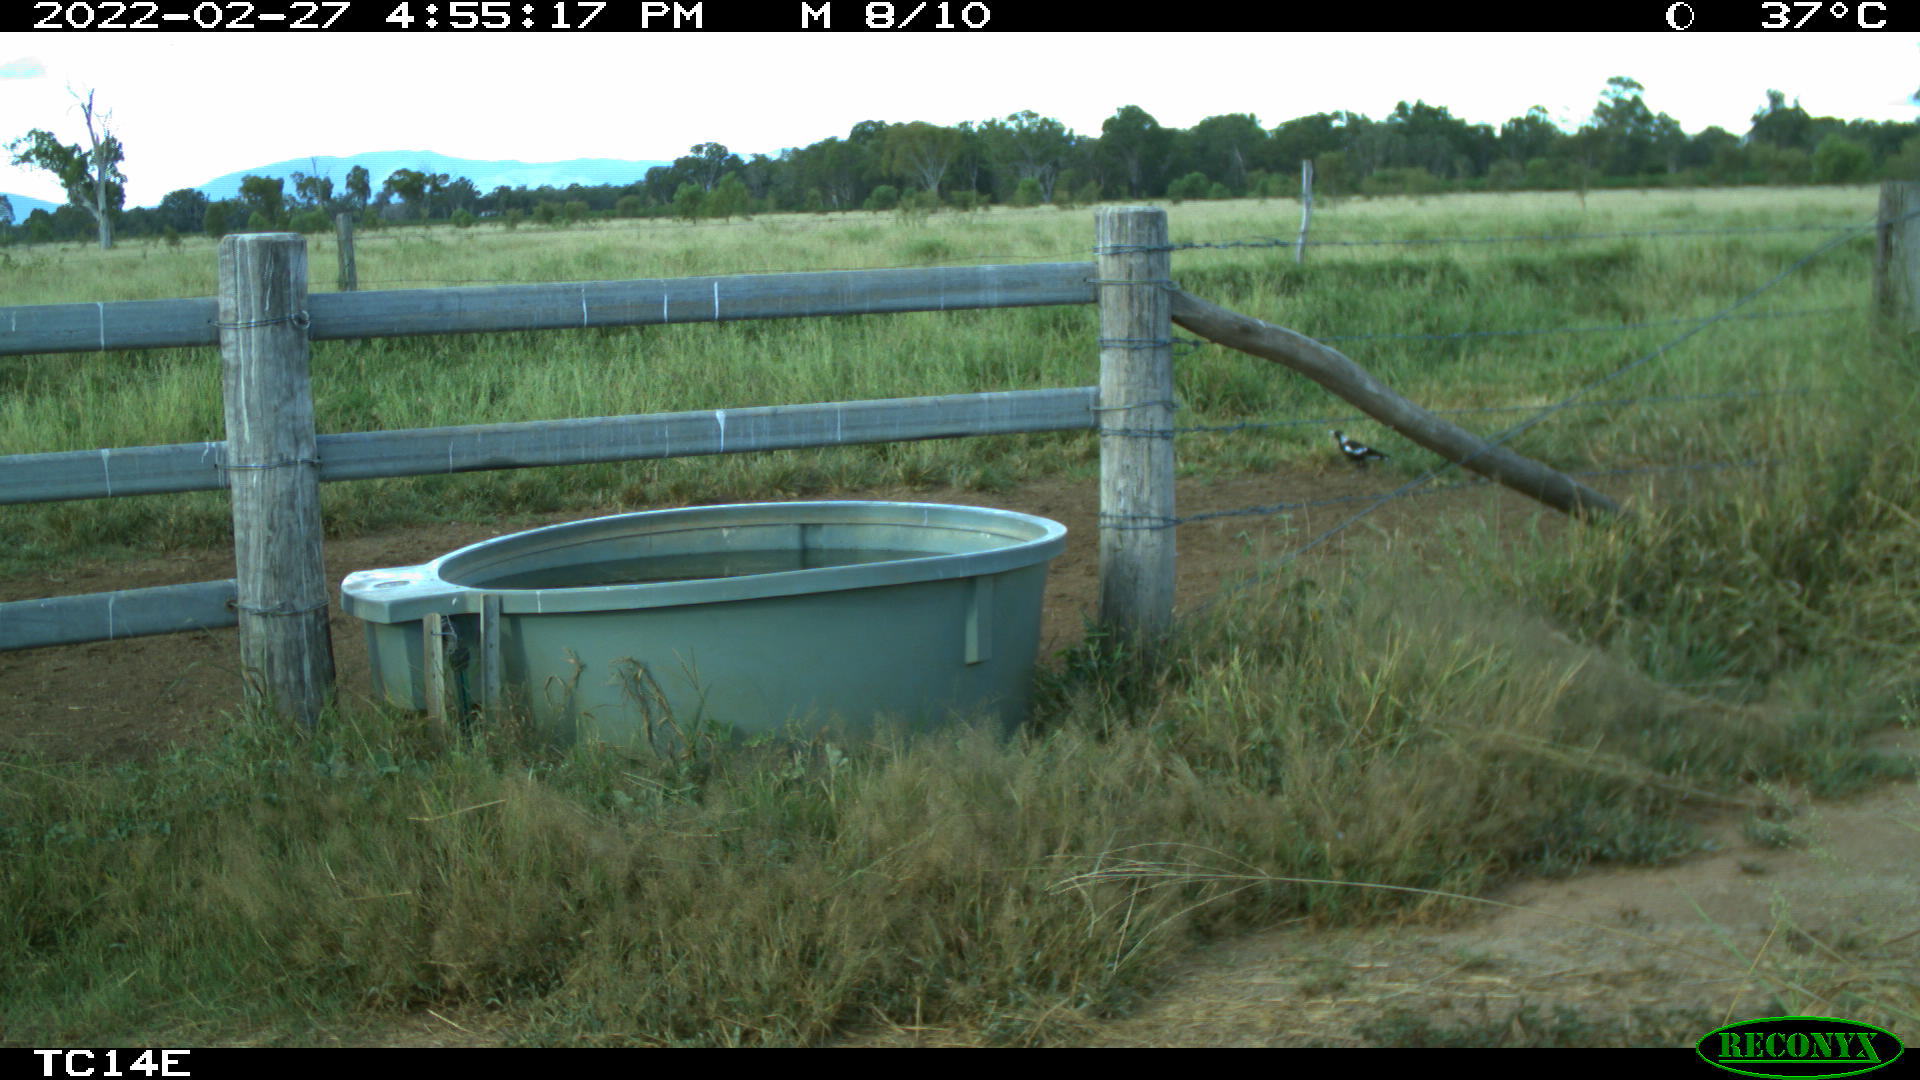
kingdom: Animalia
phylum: Chordata
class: Aves
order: Passeriformes
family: Cracticidae
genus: Gymnorhina
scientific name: Gymnorhina tibicen
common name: Australian magpie
